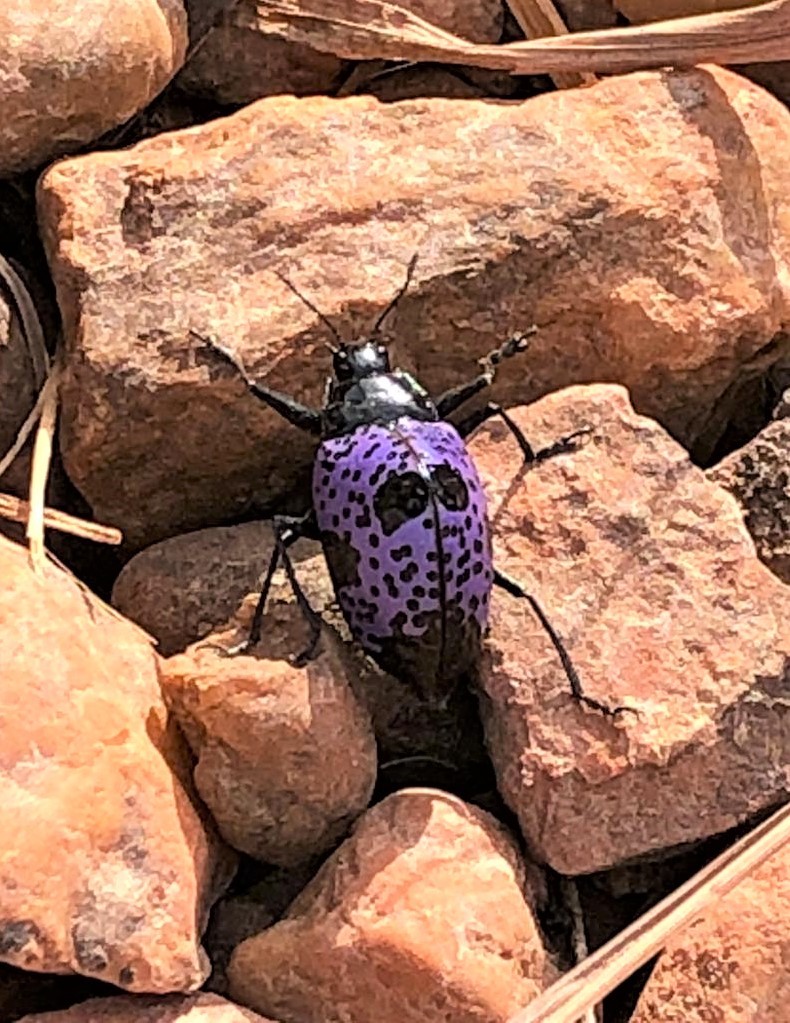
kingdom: Animalia
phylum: Arthropoda
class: Insecta
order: Coleoptera
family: Erotylidae
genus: Gibbifer
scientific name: Gibbifer
